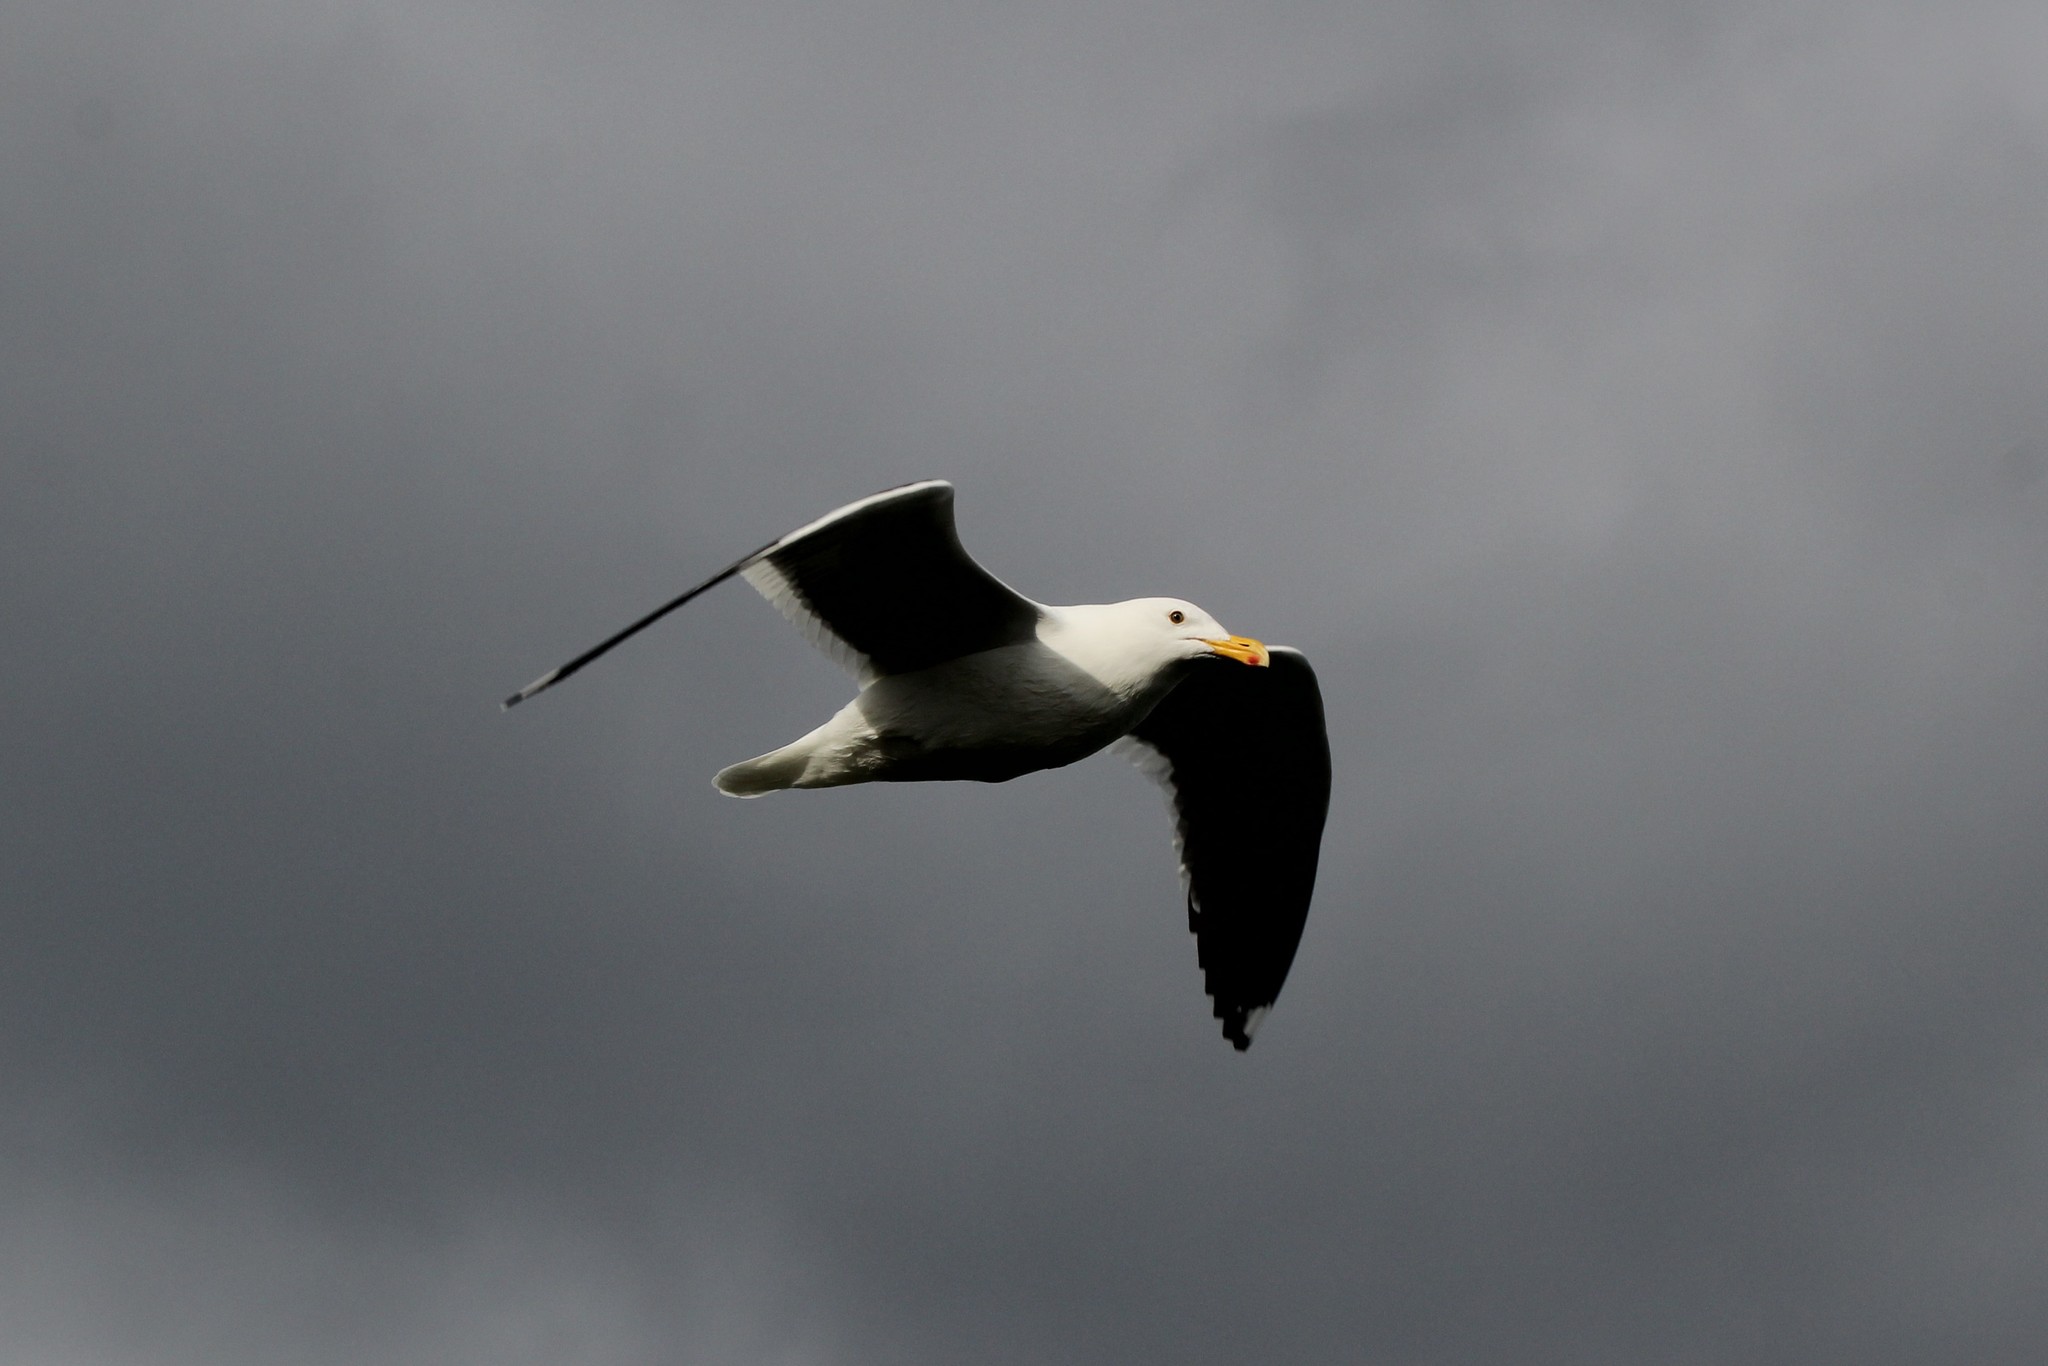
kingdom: Animalia
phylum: Chordata
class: Aves
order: Charadriiformes
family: Laridae
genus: Larus
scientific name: Larus occidentalis
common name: Western gull
